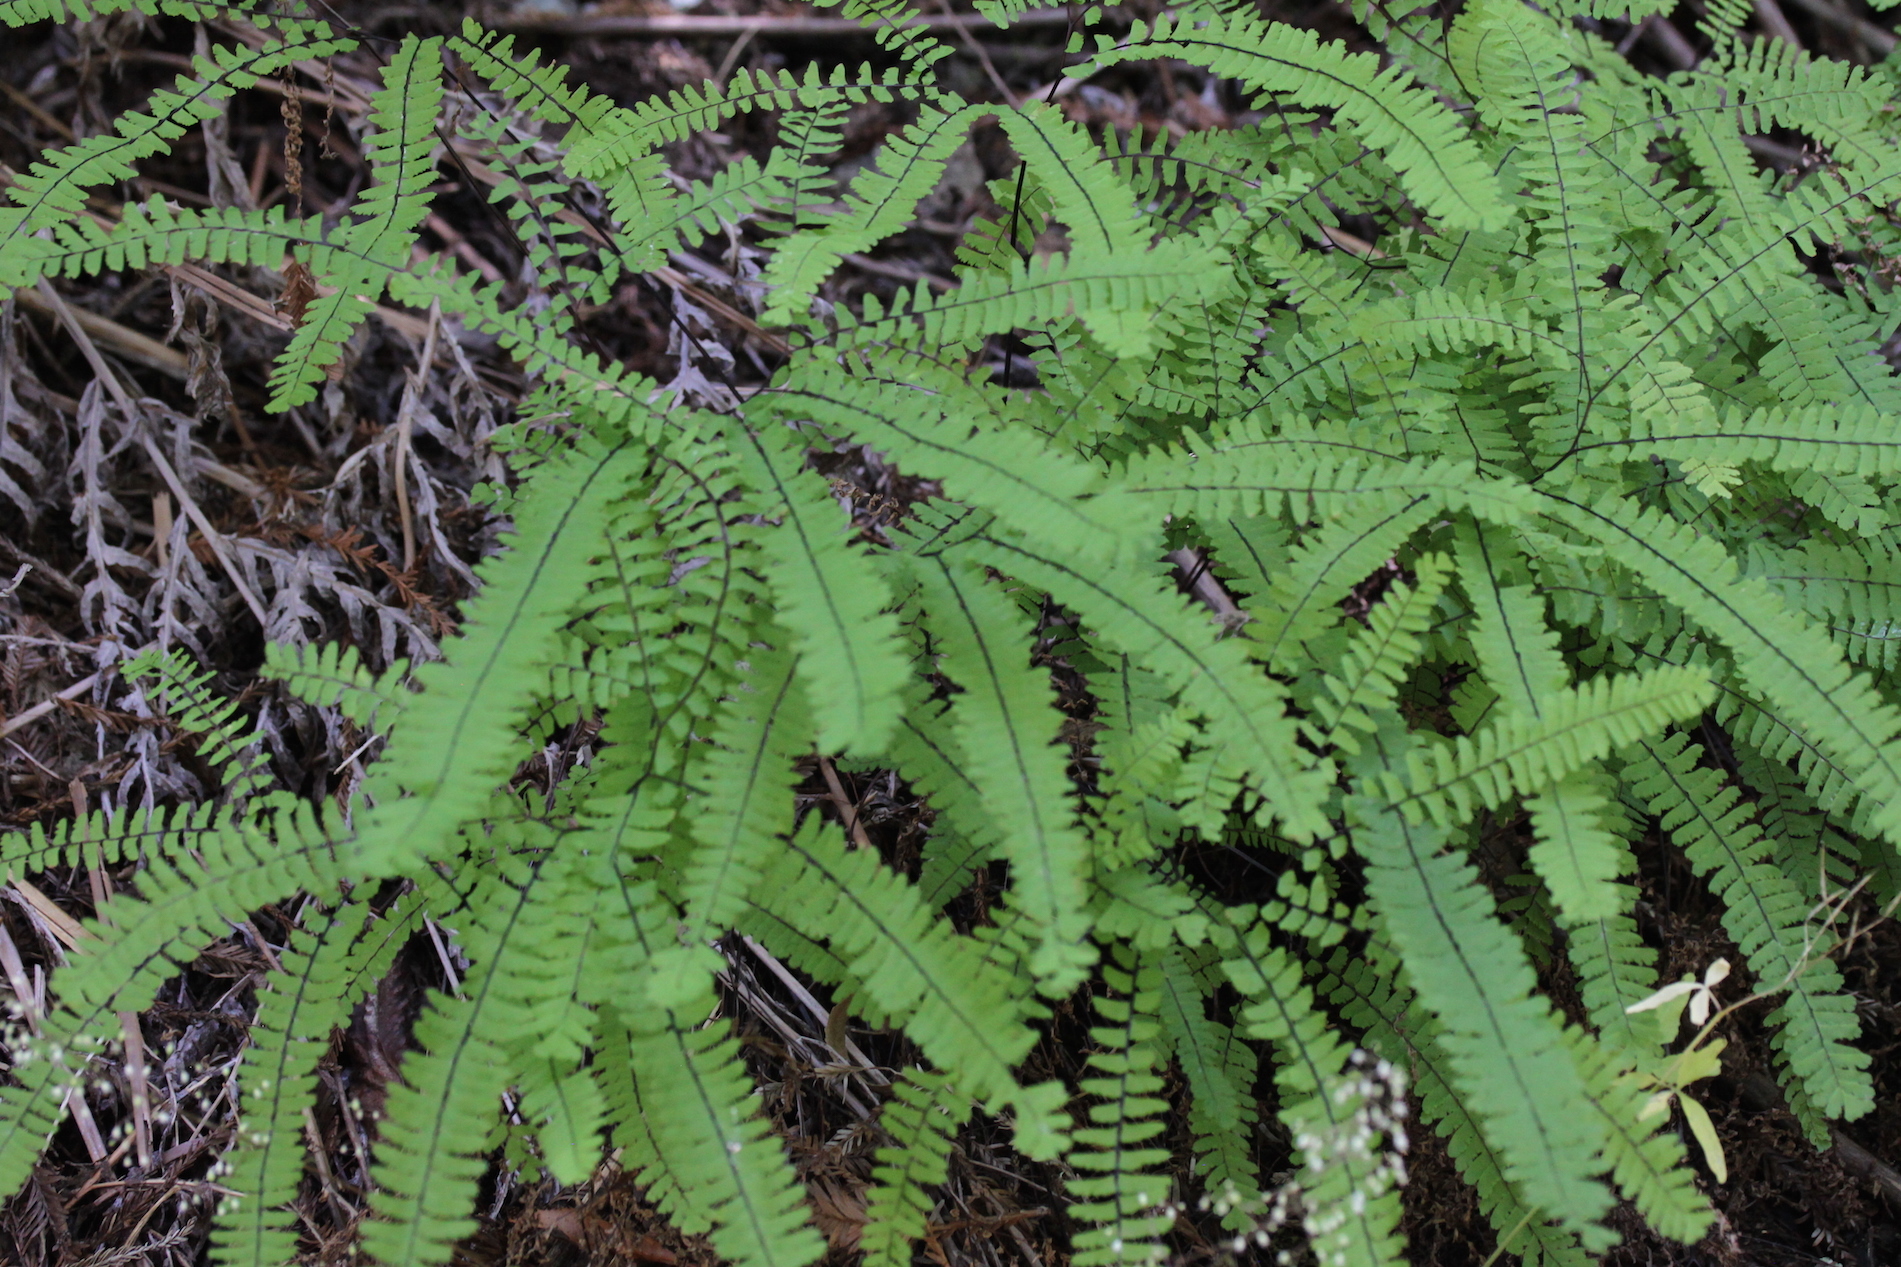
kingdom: Plantae
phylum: Tracheophyta
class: Polypodiopsida
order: Polypodiales
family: Pteridaceae
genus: Adiantum
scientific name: Adiantum aleuticum
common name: Aleutian maidenhair fern
